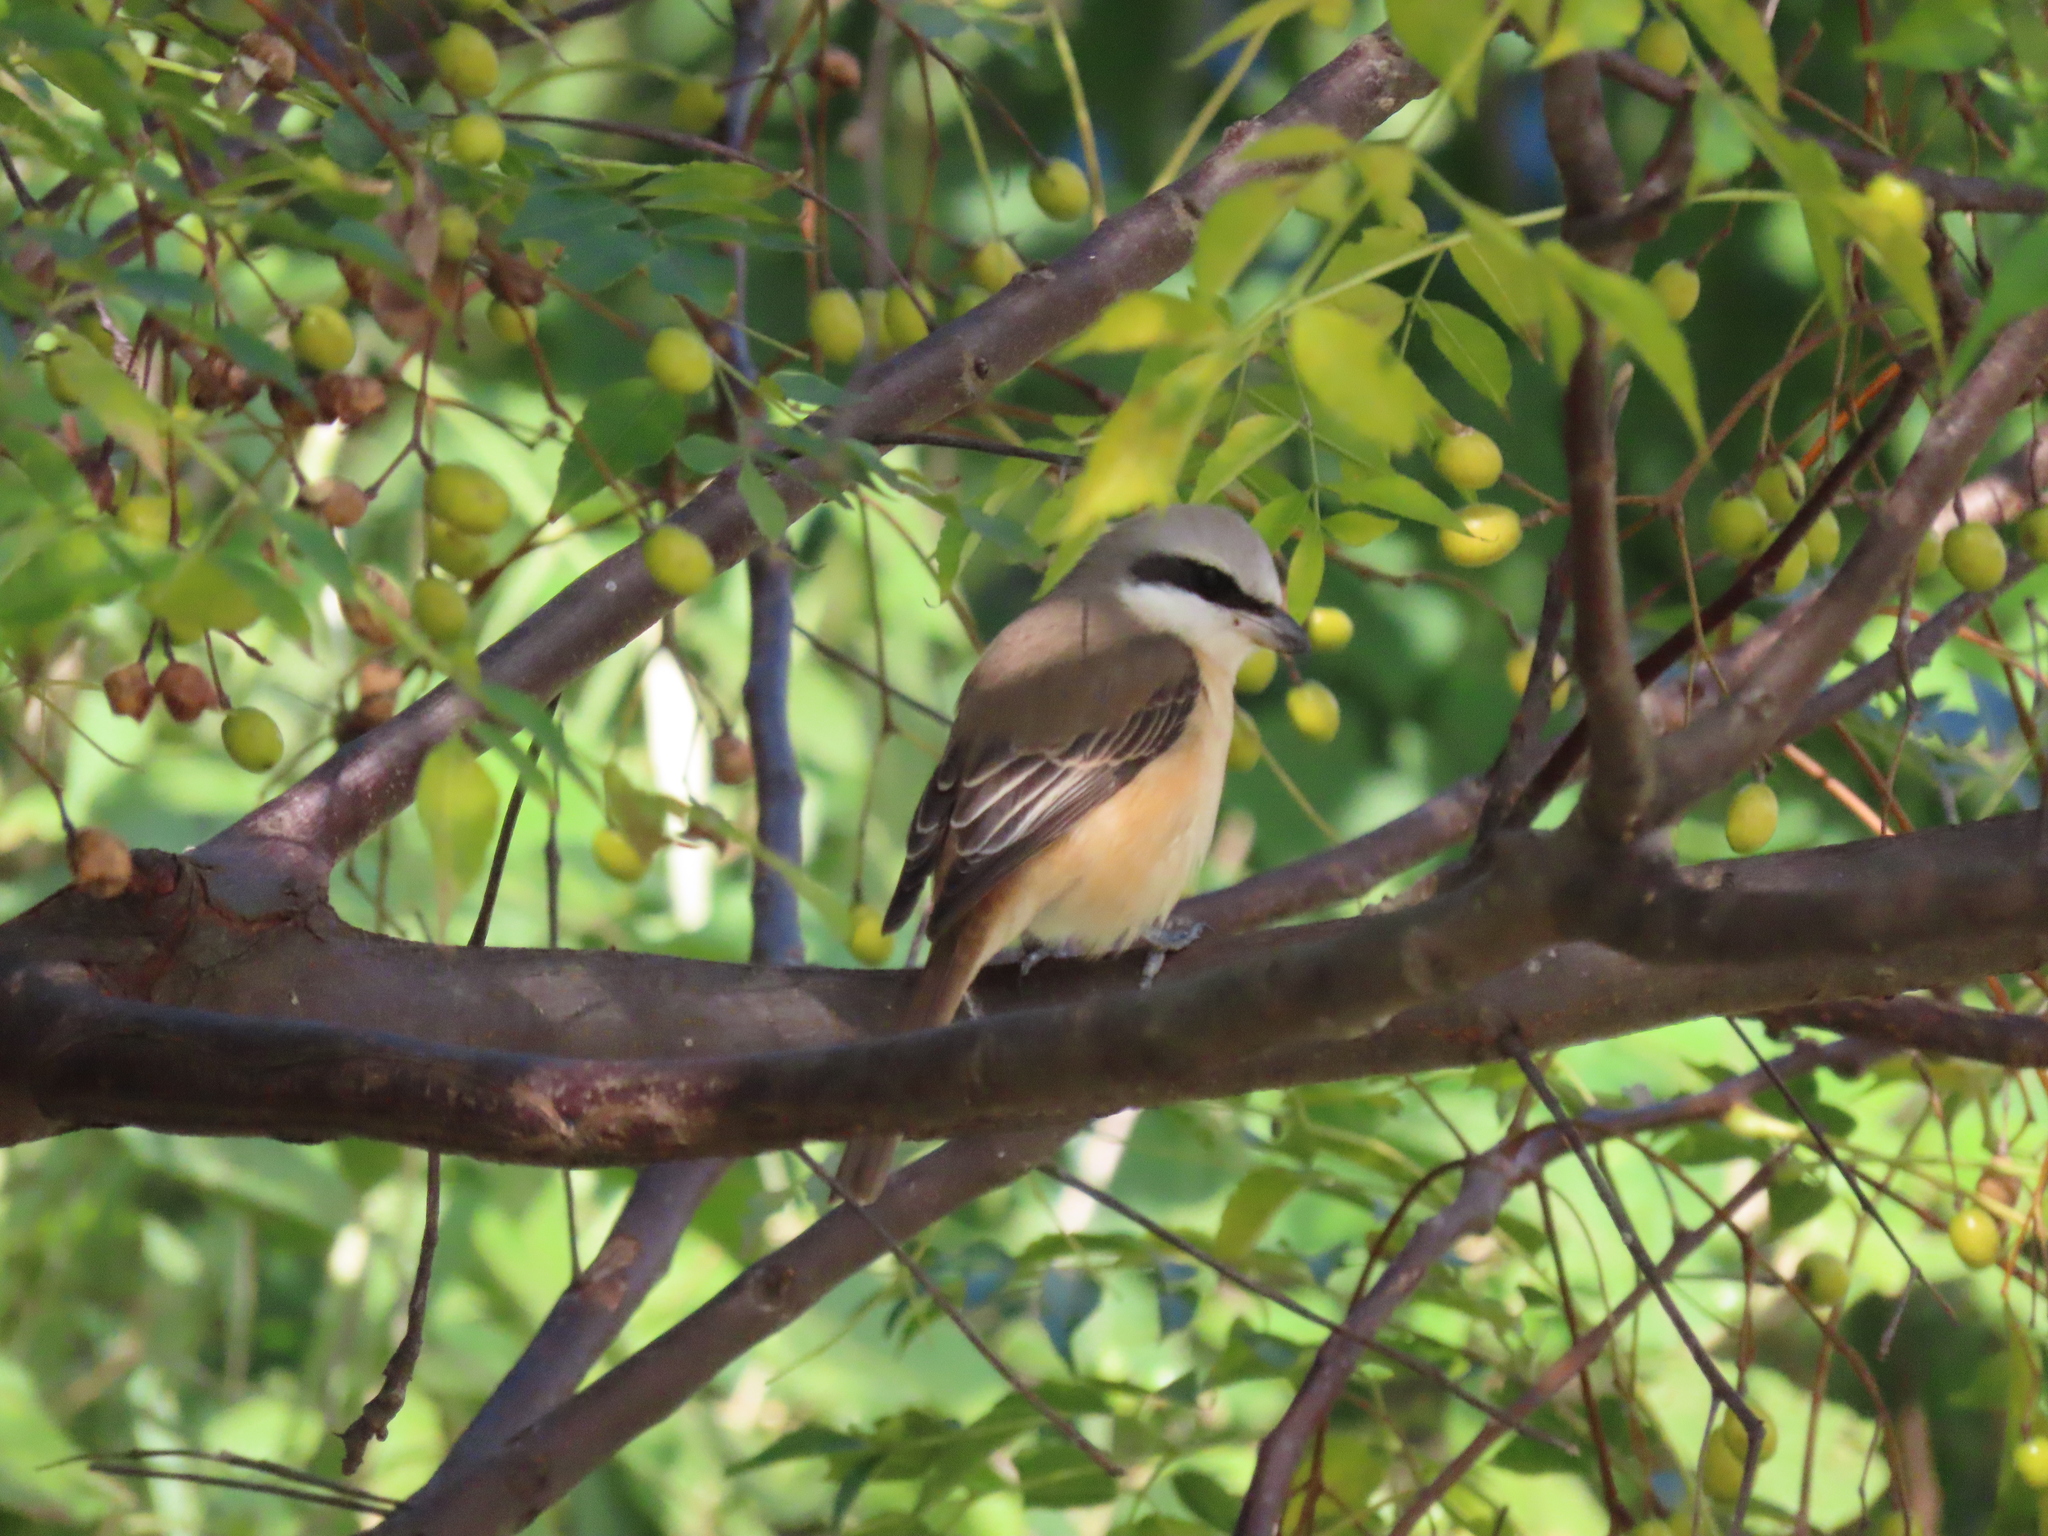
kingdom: Animalia
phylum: Chordata
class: Aves
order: Passeriformes
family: Laniidae
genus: Lanius
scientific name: Lanius cristatus
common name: Brown shrike
